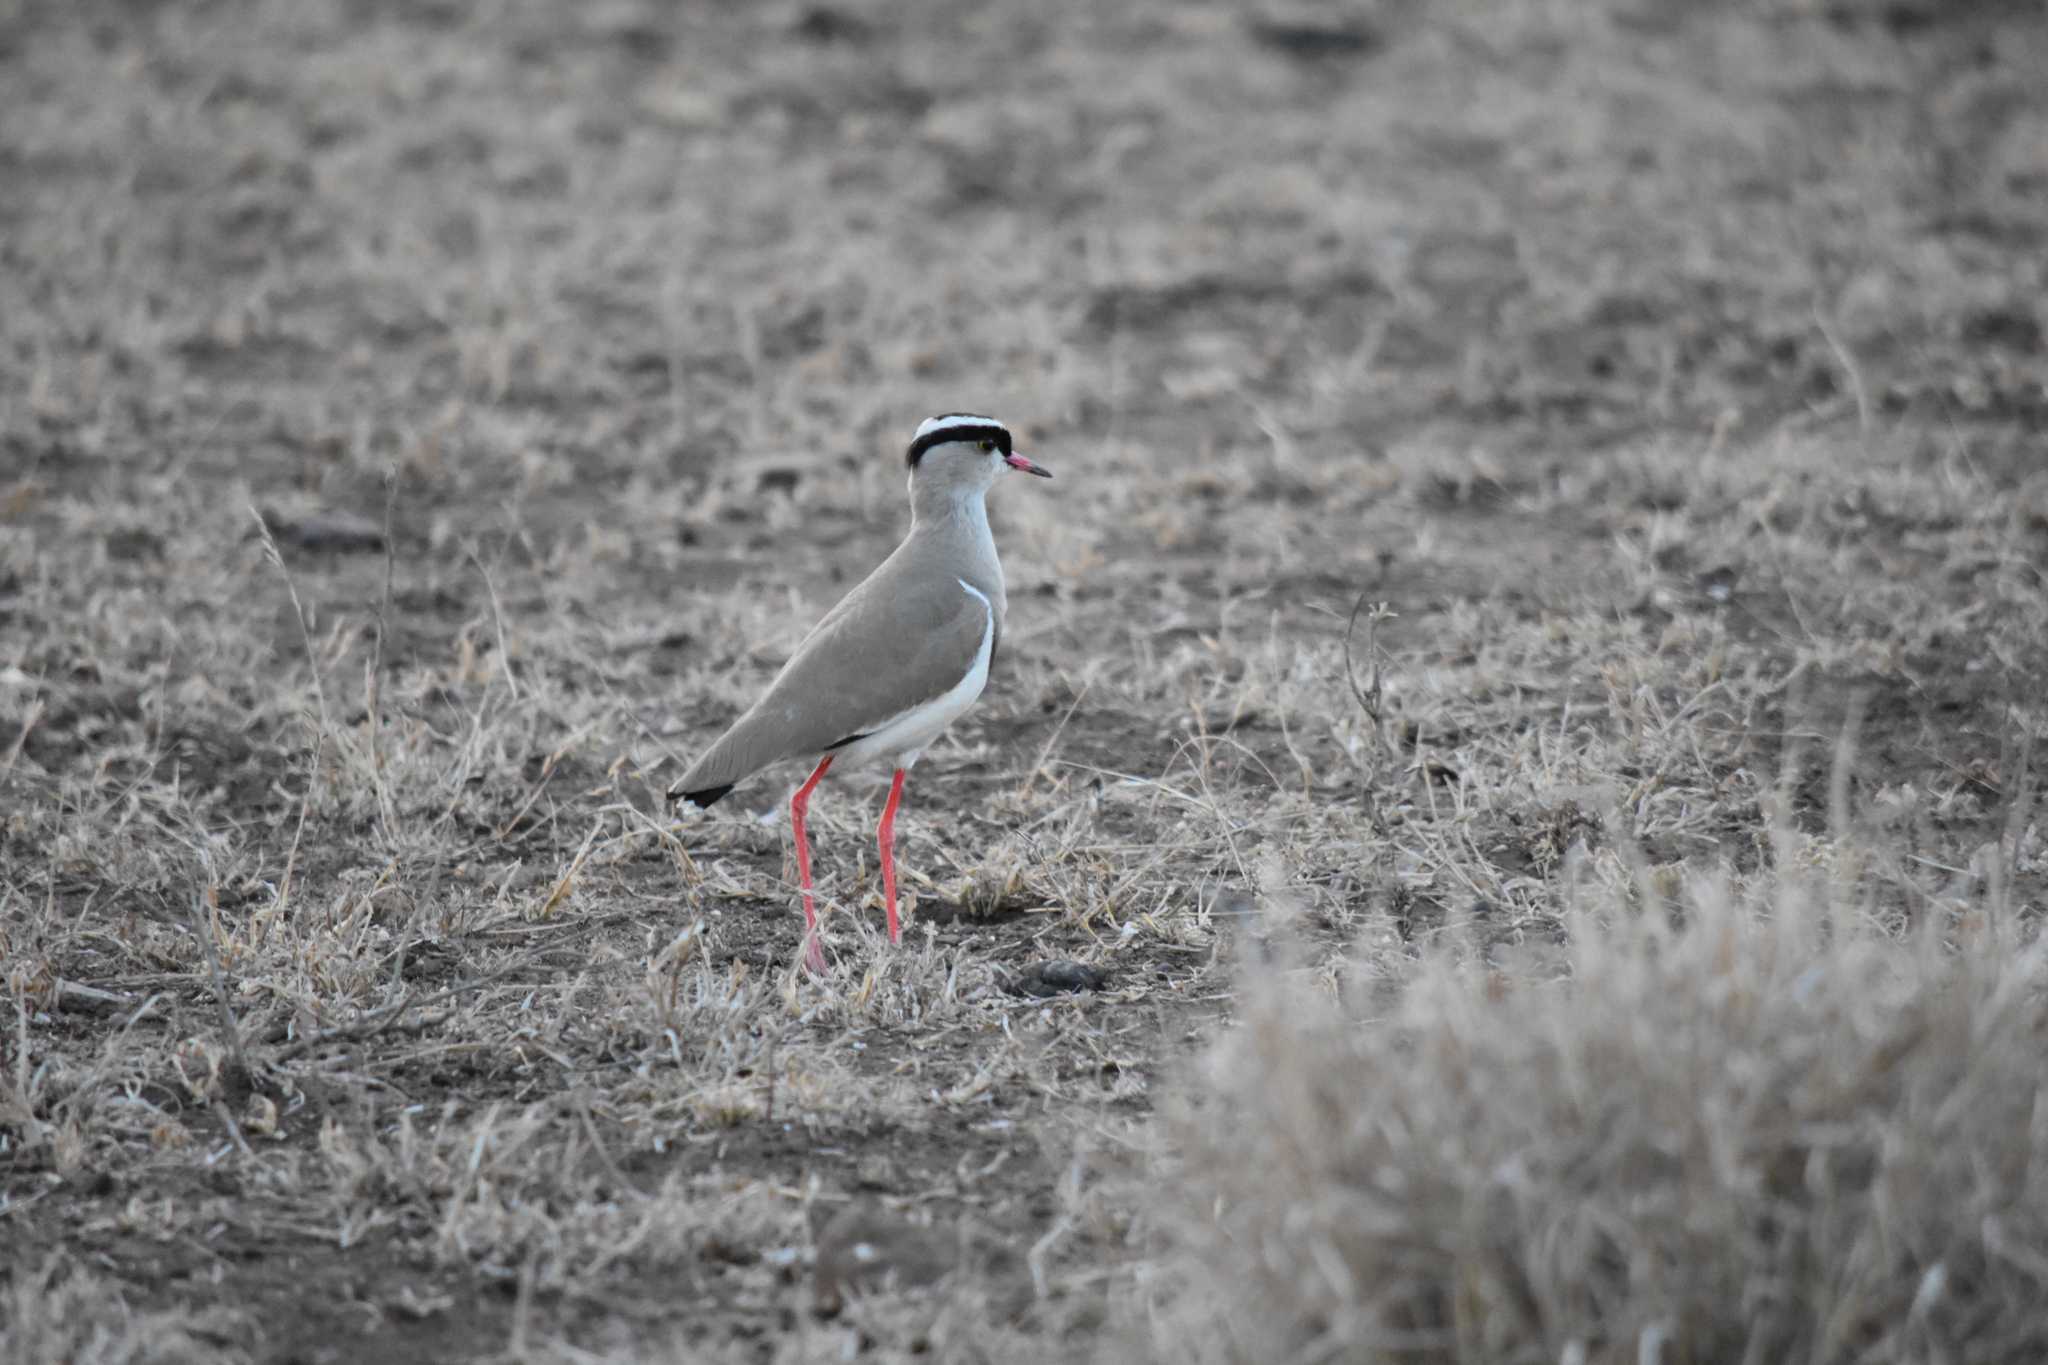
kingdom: Animalia
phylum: Chordata
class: Aves
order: Charadriiformes
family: Charadriidae
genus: Vanellus
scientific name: Vanellus coronatus
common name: Crowned lapwing
